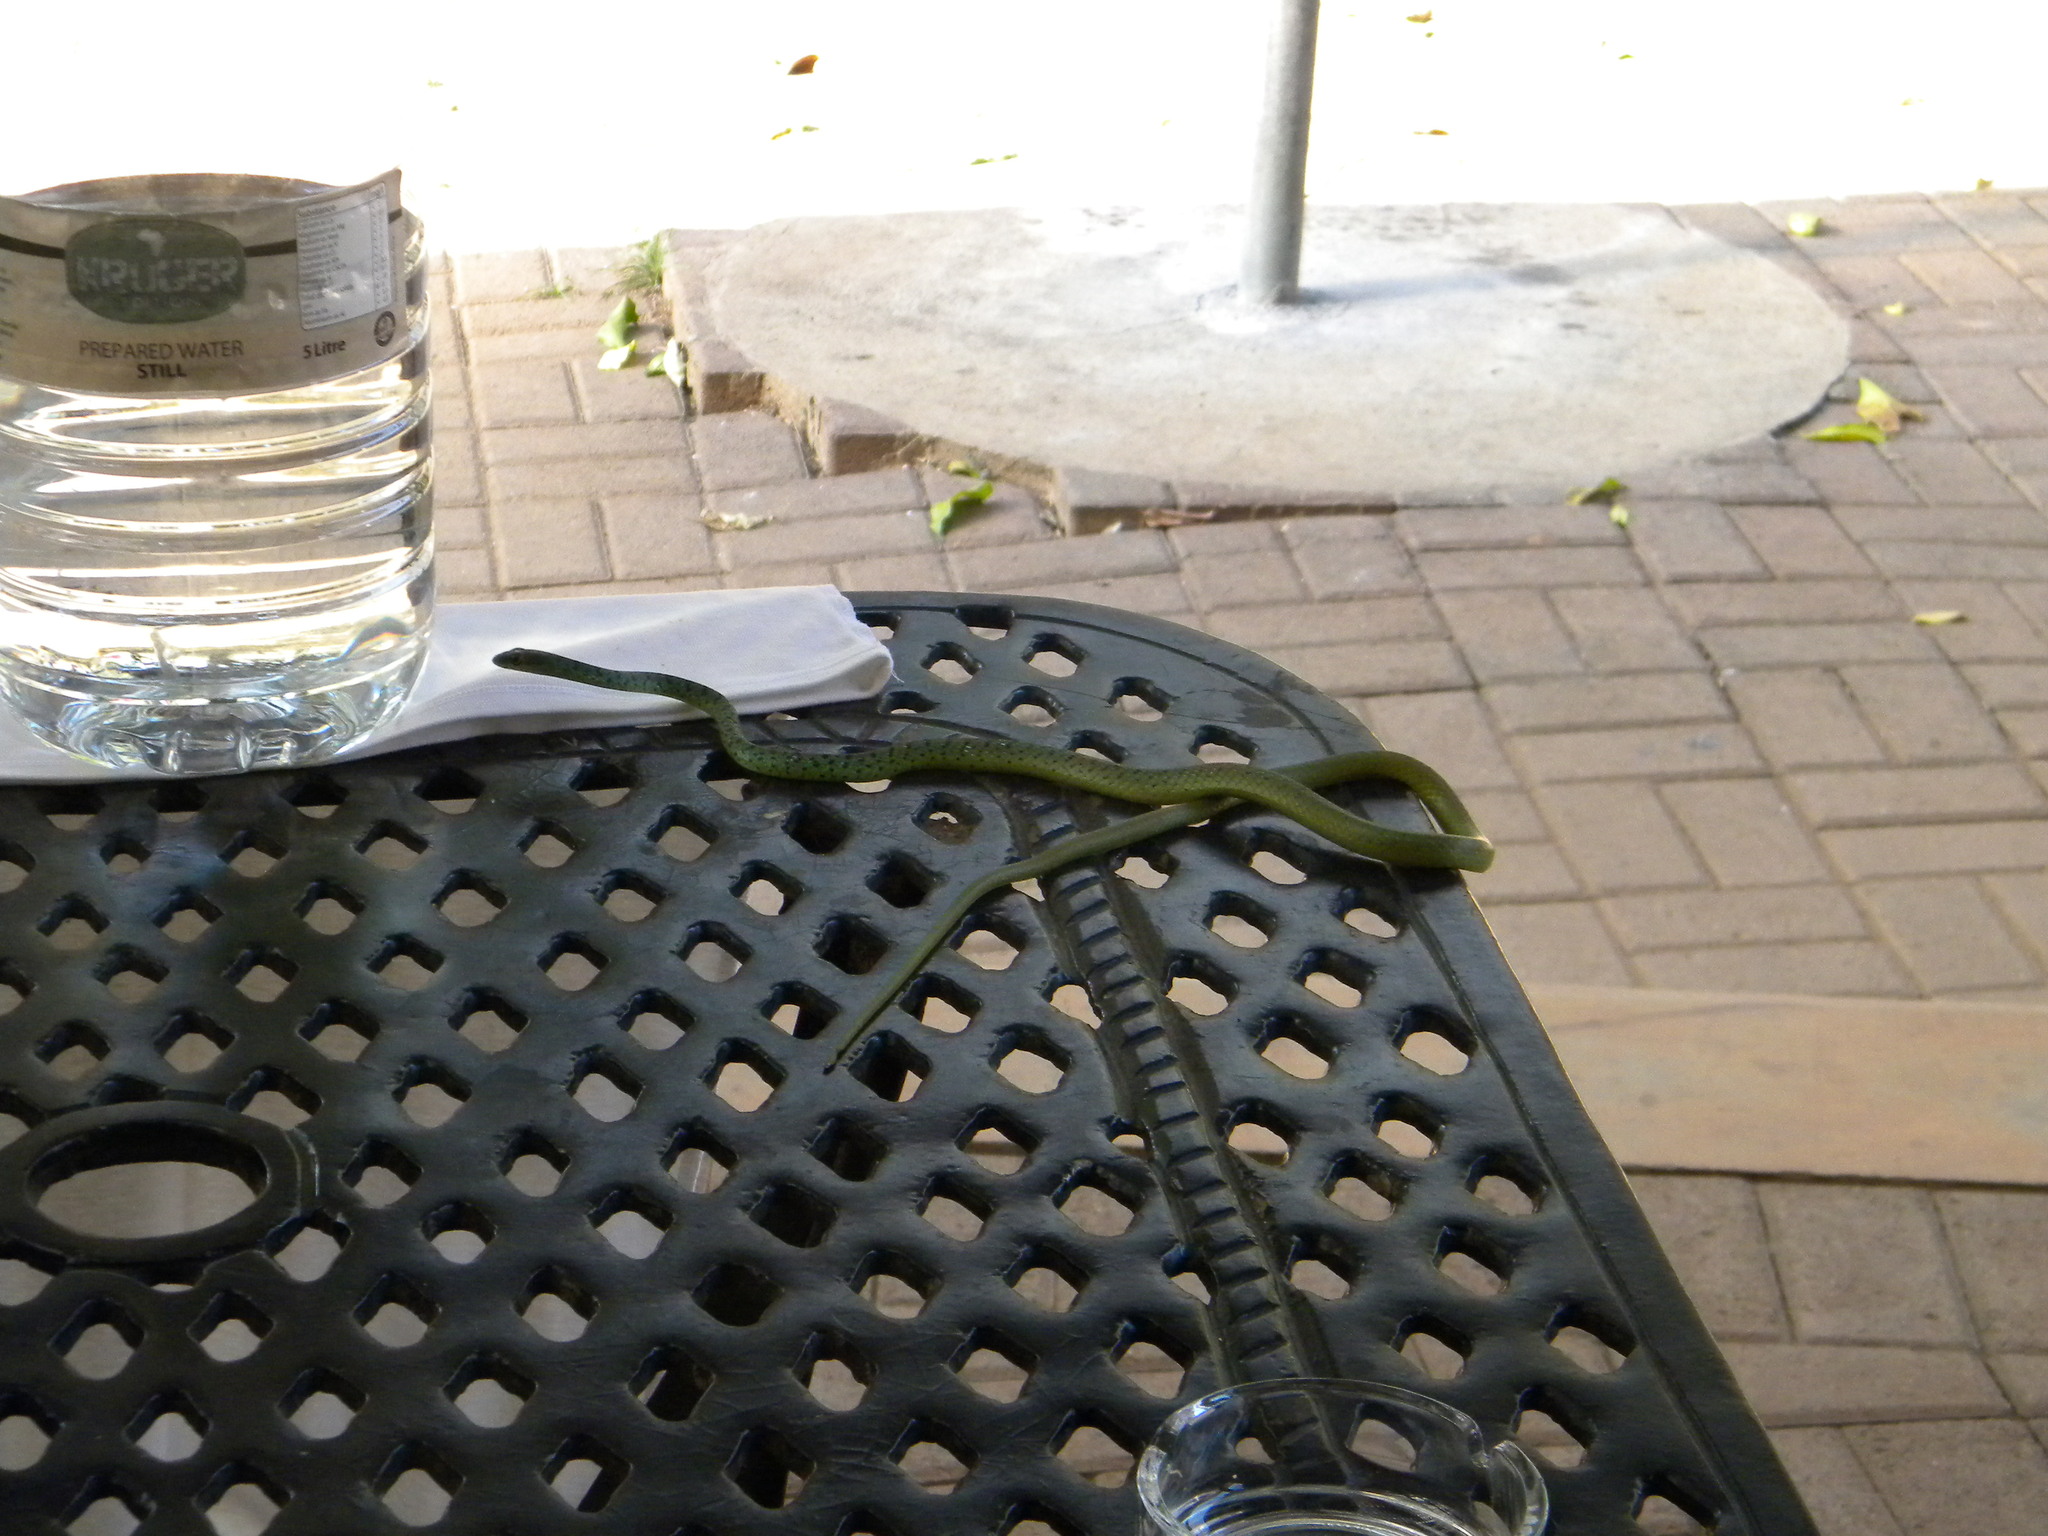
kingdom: Animalia
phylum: Chordata
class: Squamata
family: Colubridae
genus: Philothamnus
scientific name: Philothamnus semivariegatus
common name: Spotted bush snake
